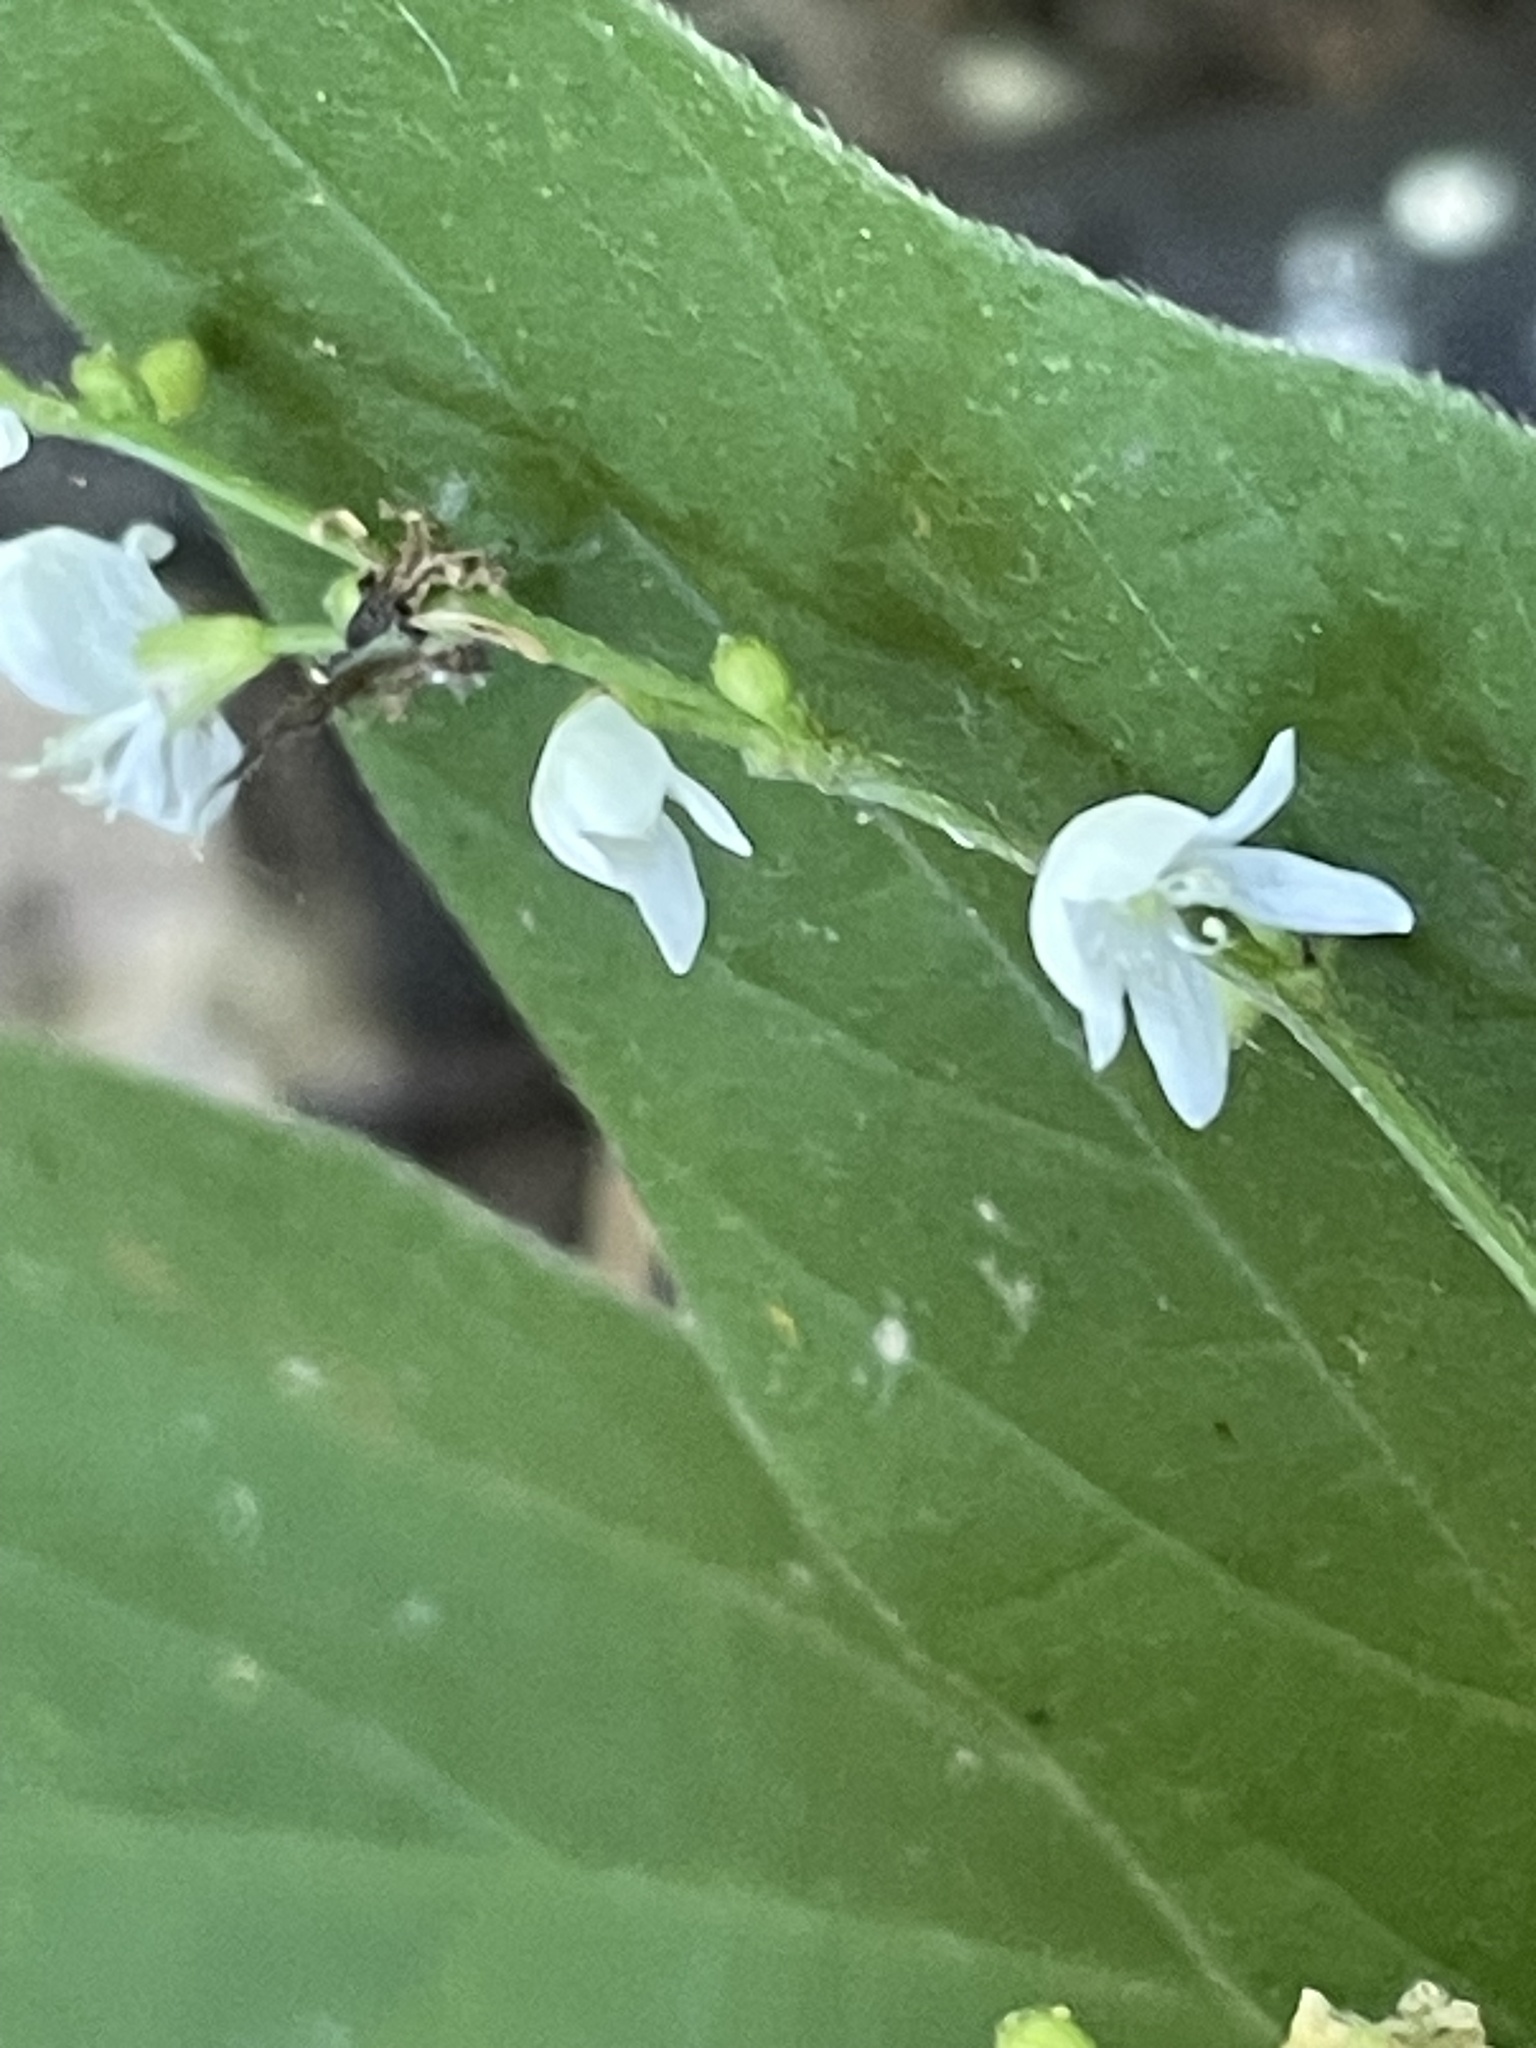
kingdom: Plantae
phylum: Tracheophyta
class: Magnoliopsida
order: Fabales
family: Fabaceae
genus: Hylodesmum
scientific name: Hylodesmum pauciflorum
